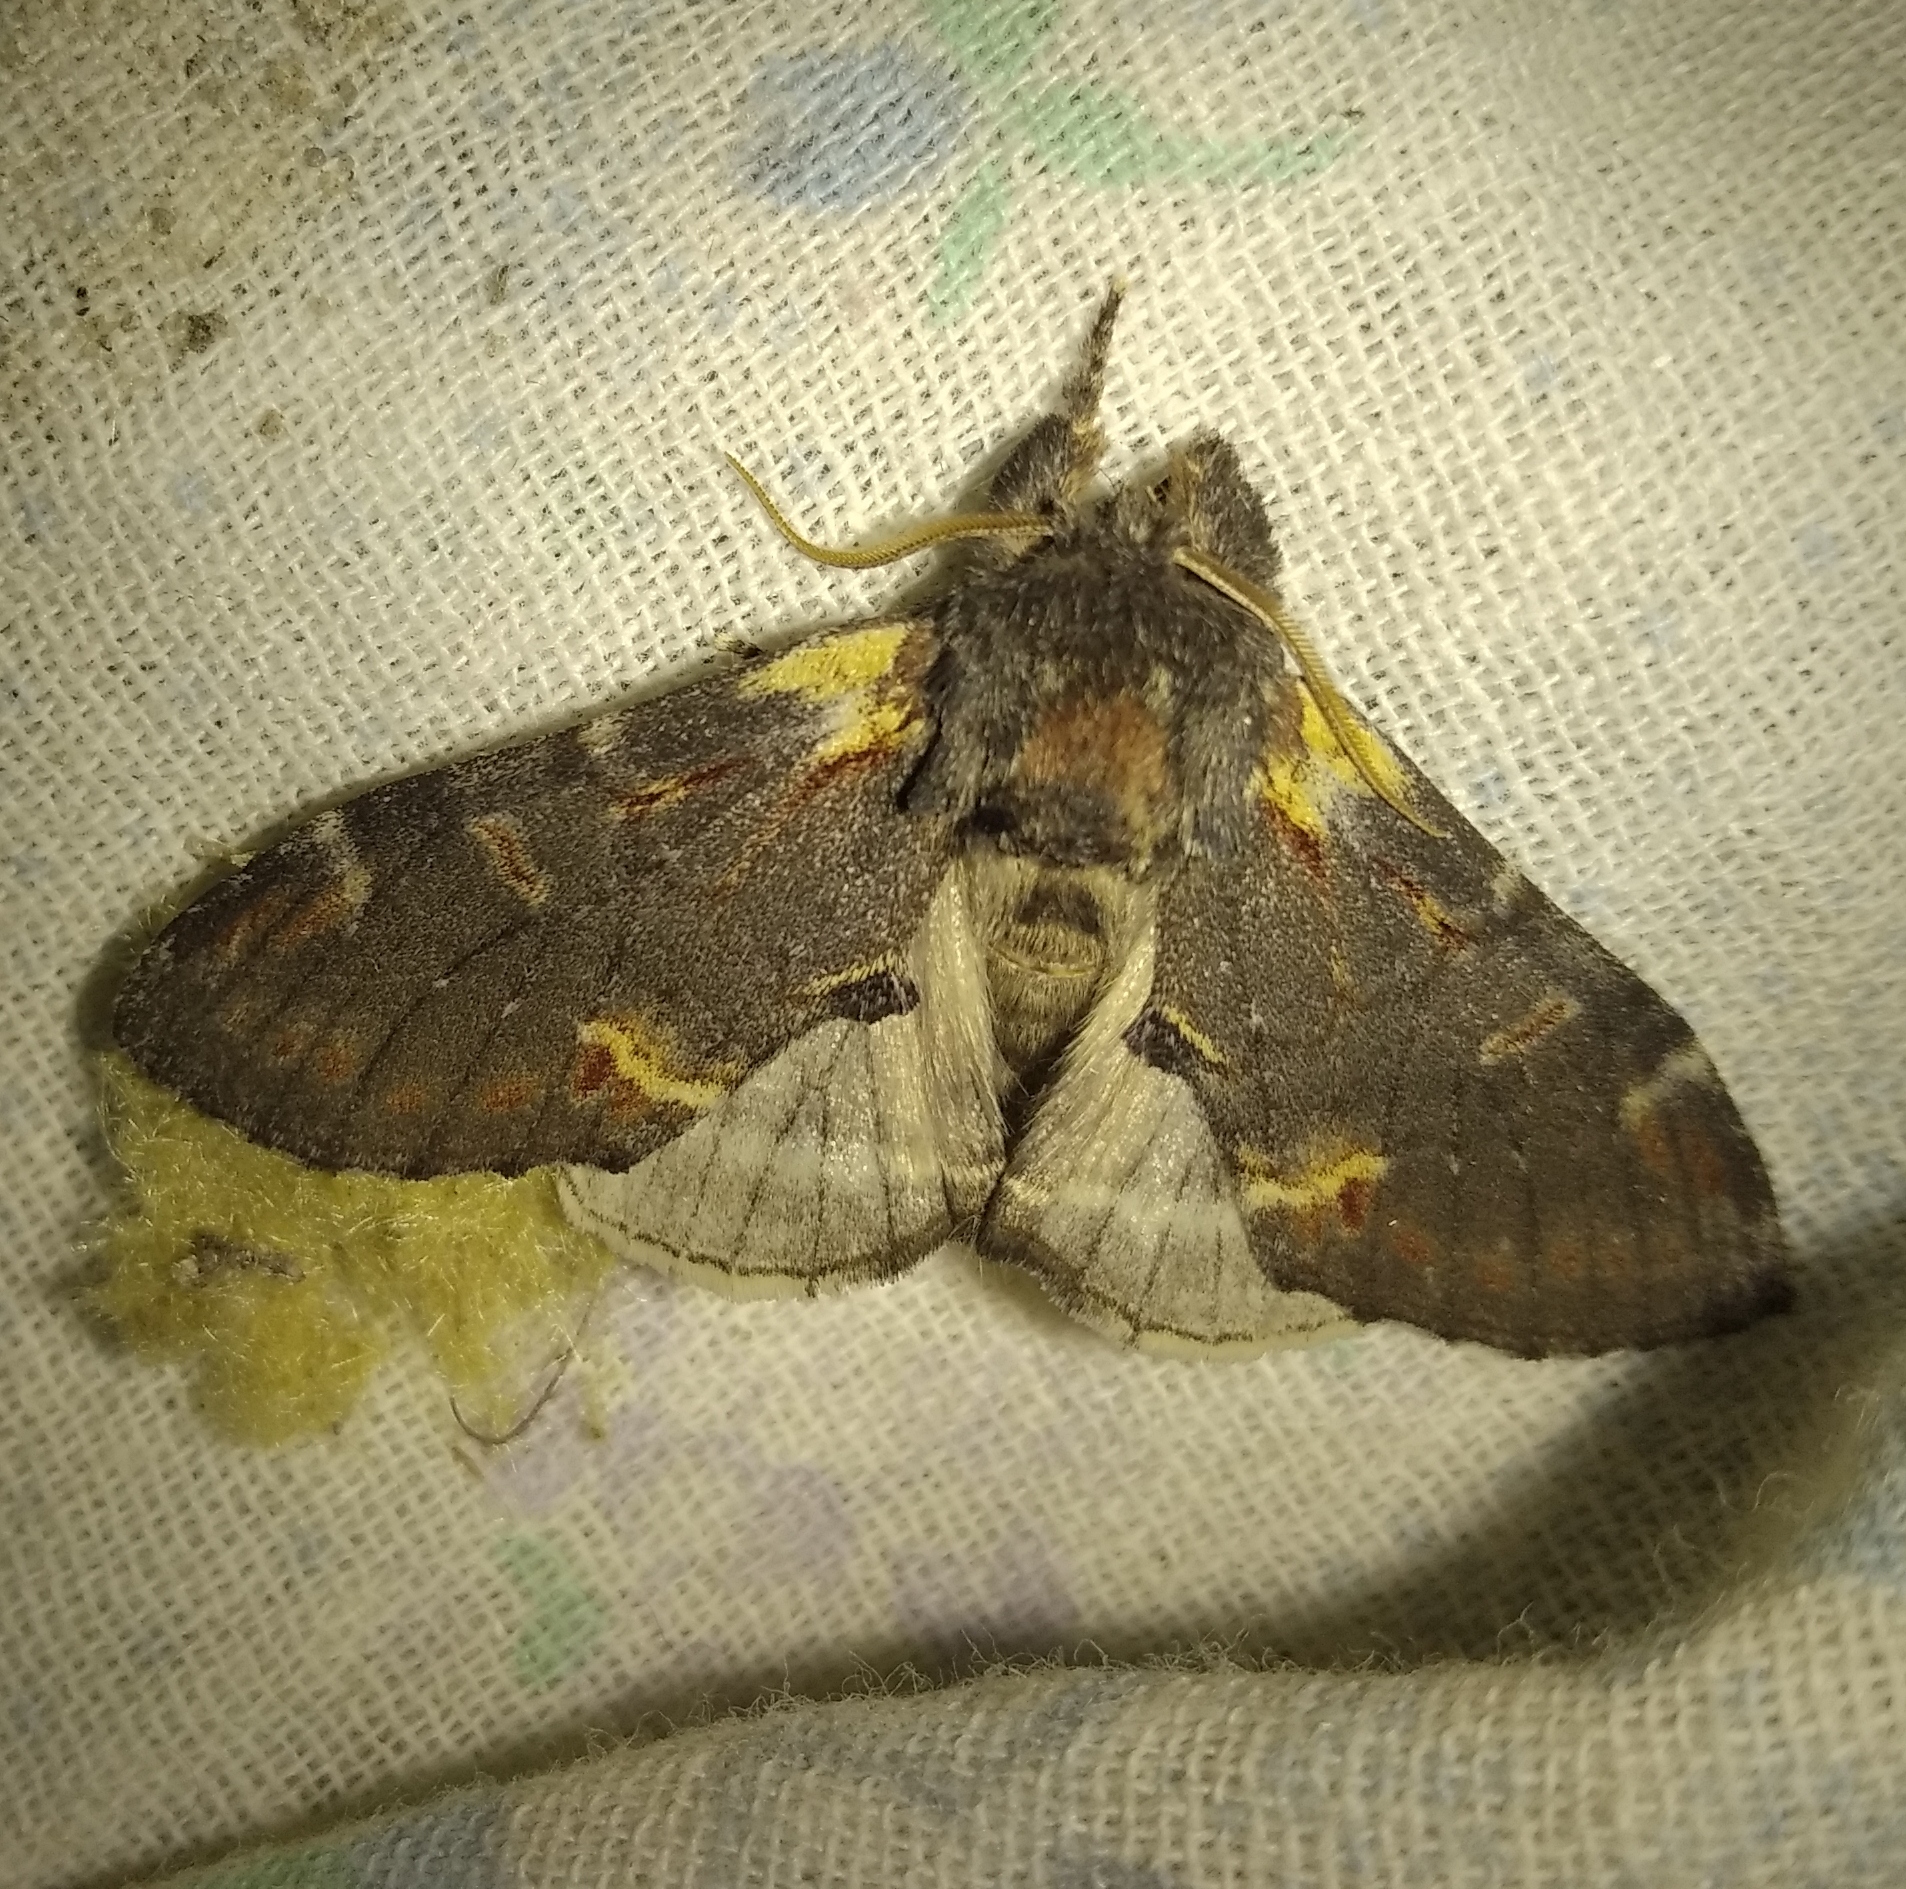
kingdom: Animalia
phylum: Arthropoda
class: Insecta
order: Lepidoptera
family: Notodontidae
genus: Notodonta
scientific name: Notodonta dromedarius
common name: Iron prominent
